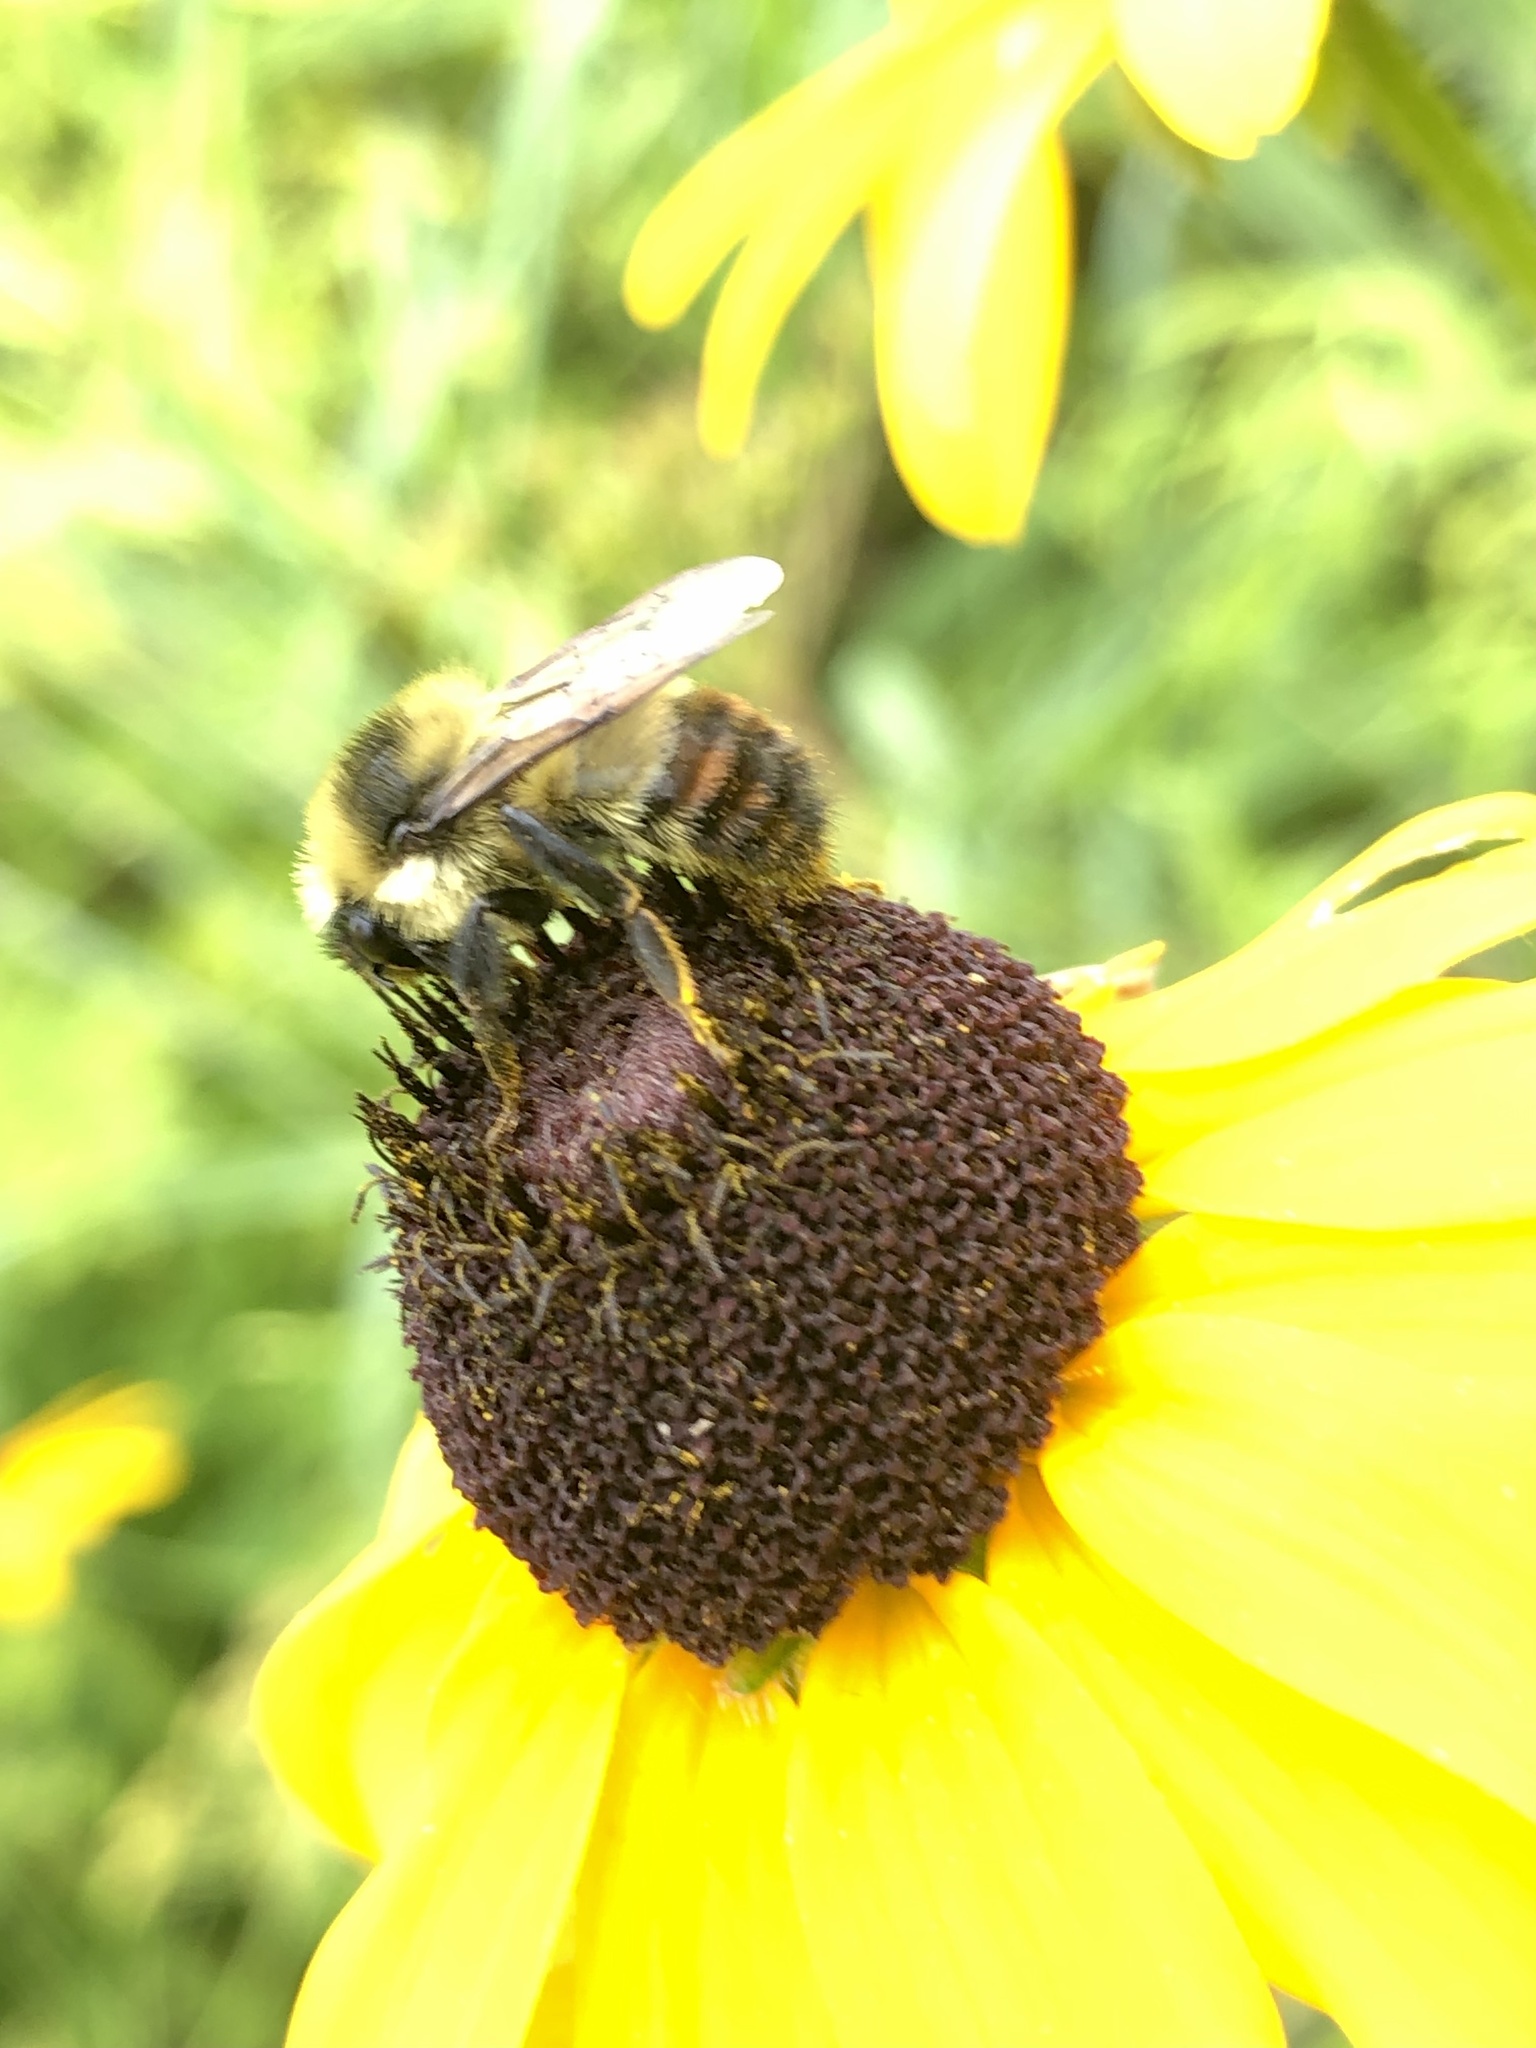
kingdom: Animalia
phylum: Arthropoda
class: Insecta
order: Hymenoptera
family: Apidae
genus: Bombus
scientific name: Bombus rufocinctus
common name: Red-belted bumble bee
